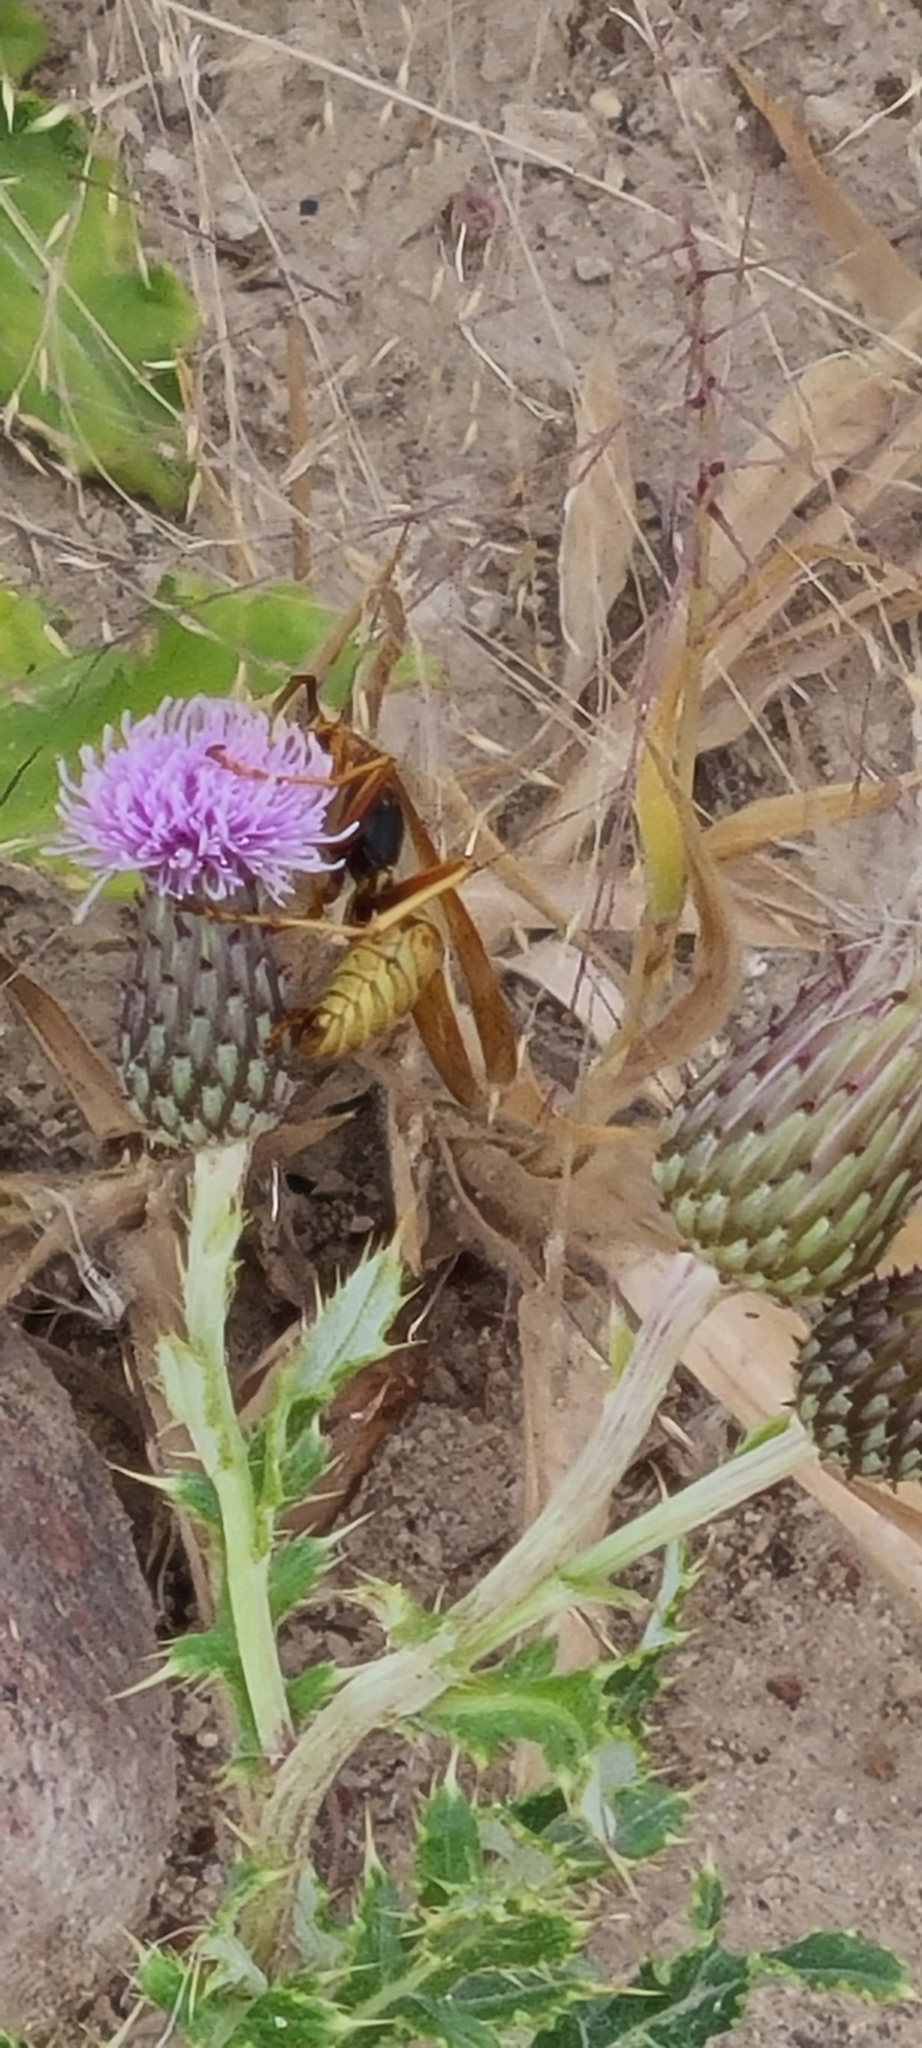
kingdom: Animalia
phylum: Arthropoda
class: Insecta
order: Hymenoptera
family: Eumenidae
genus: Polistes
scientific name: Polistes aurifer
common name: Paper wasp
